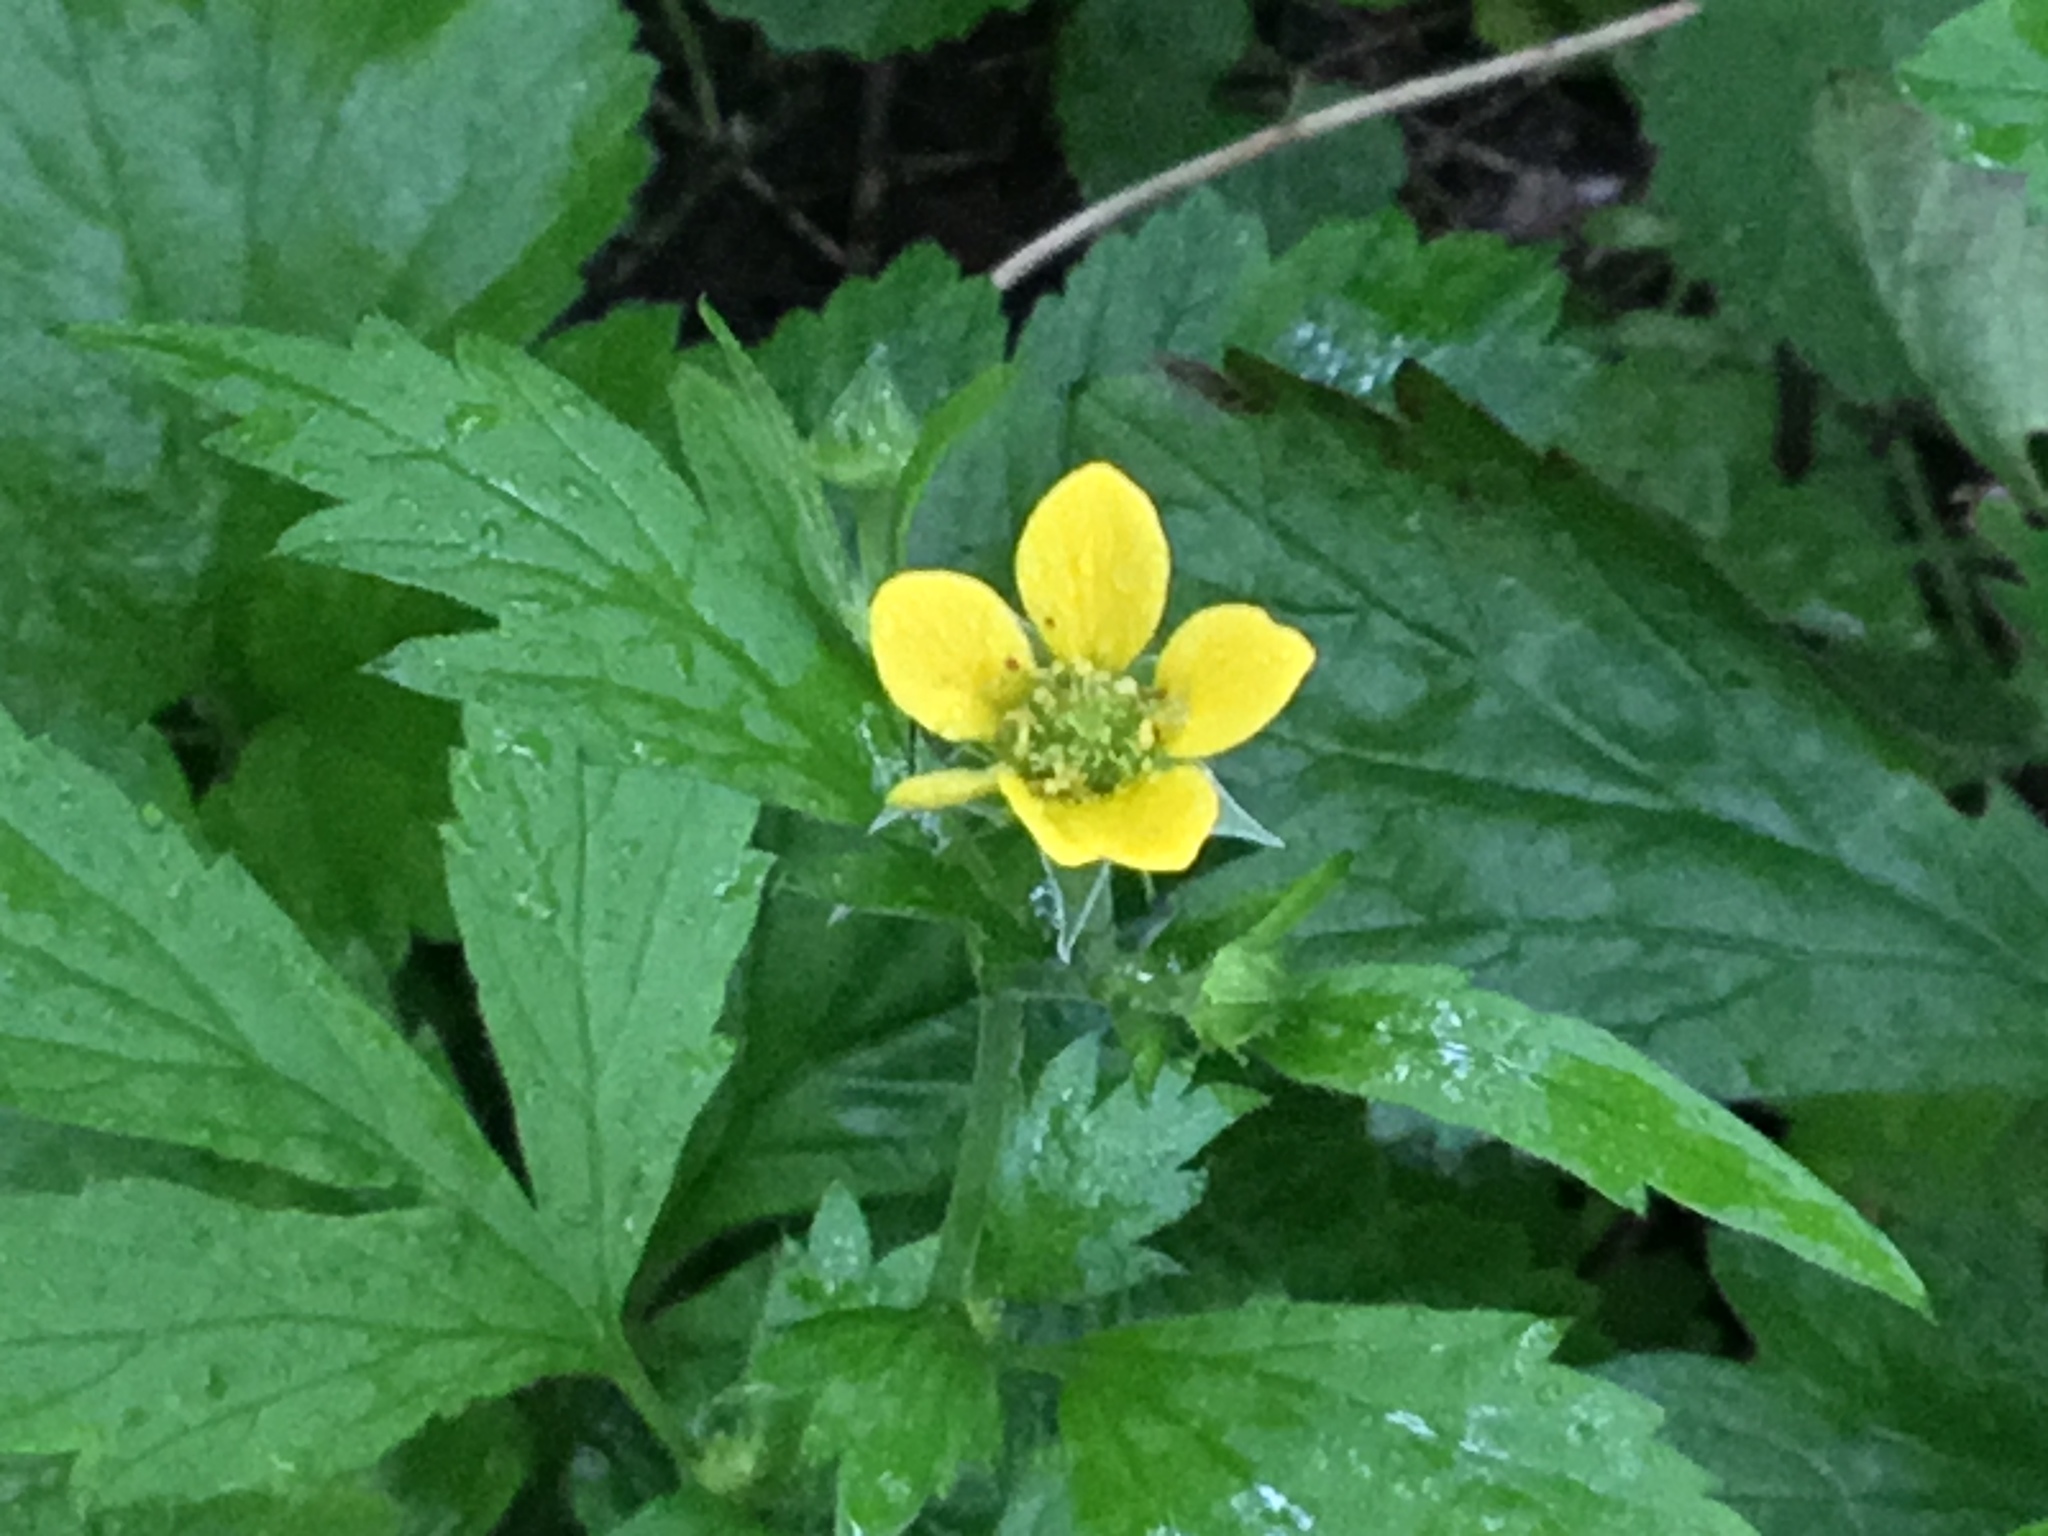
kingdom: Plantae
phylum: Tracheophyta
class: Magnoliopsida
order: Rosales
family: Rosaceae
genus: Geum
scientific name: Geum urbanum
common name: Wood avens
